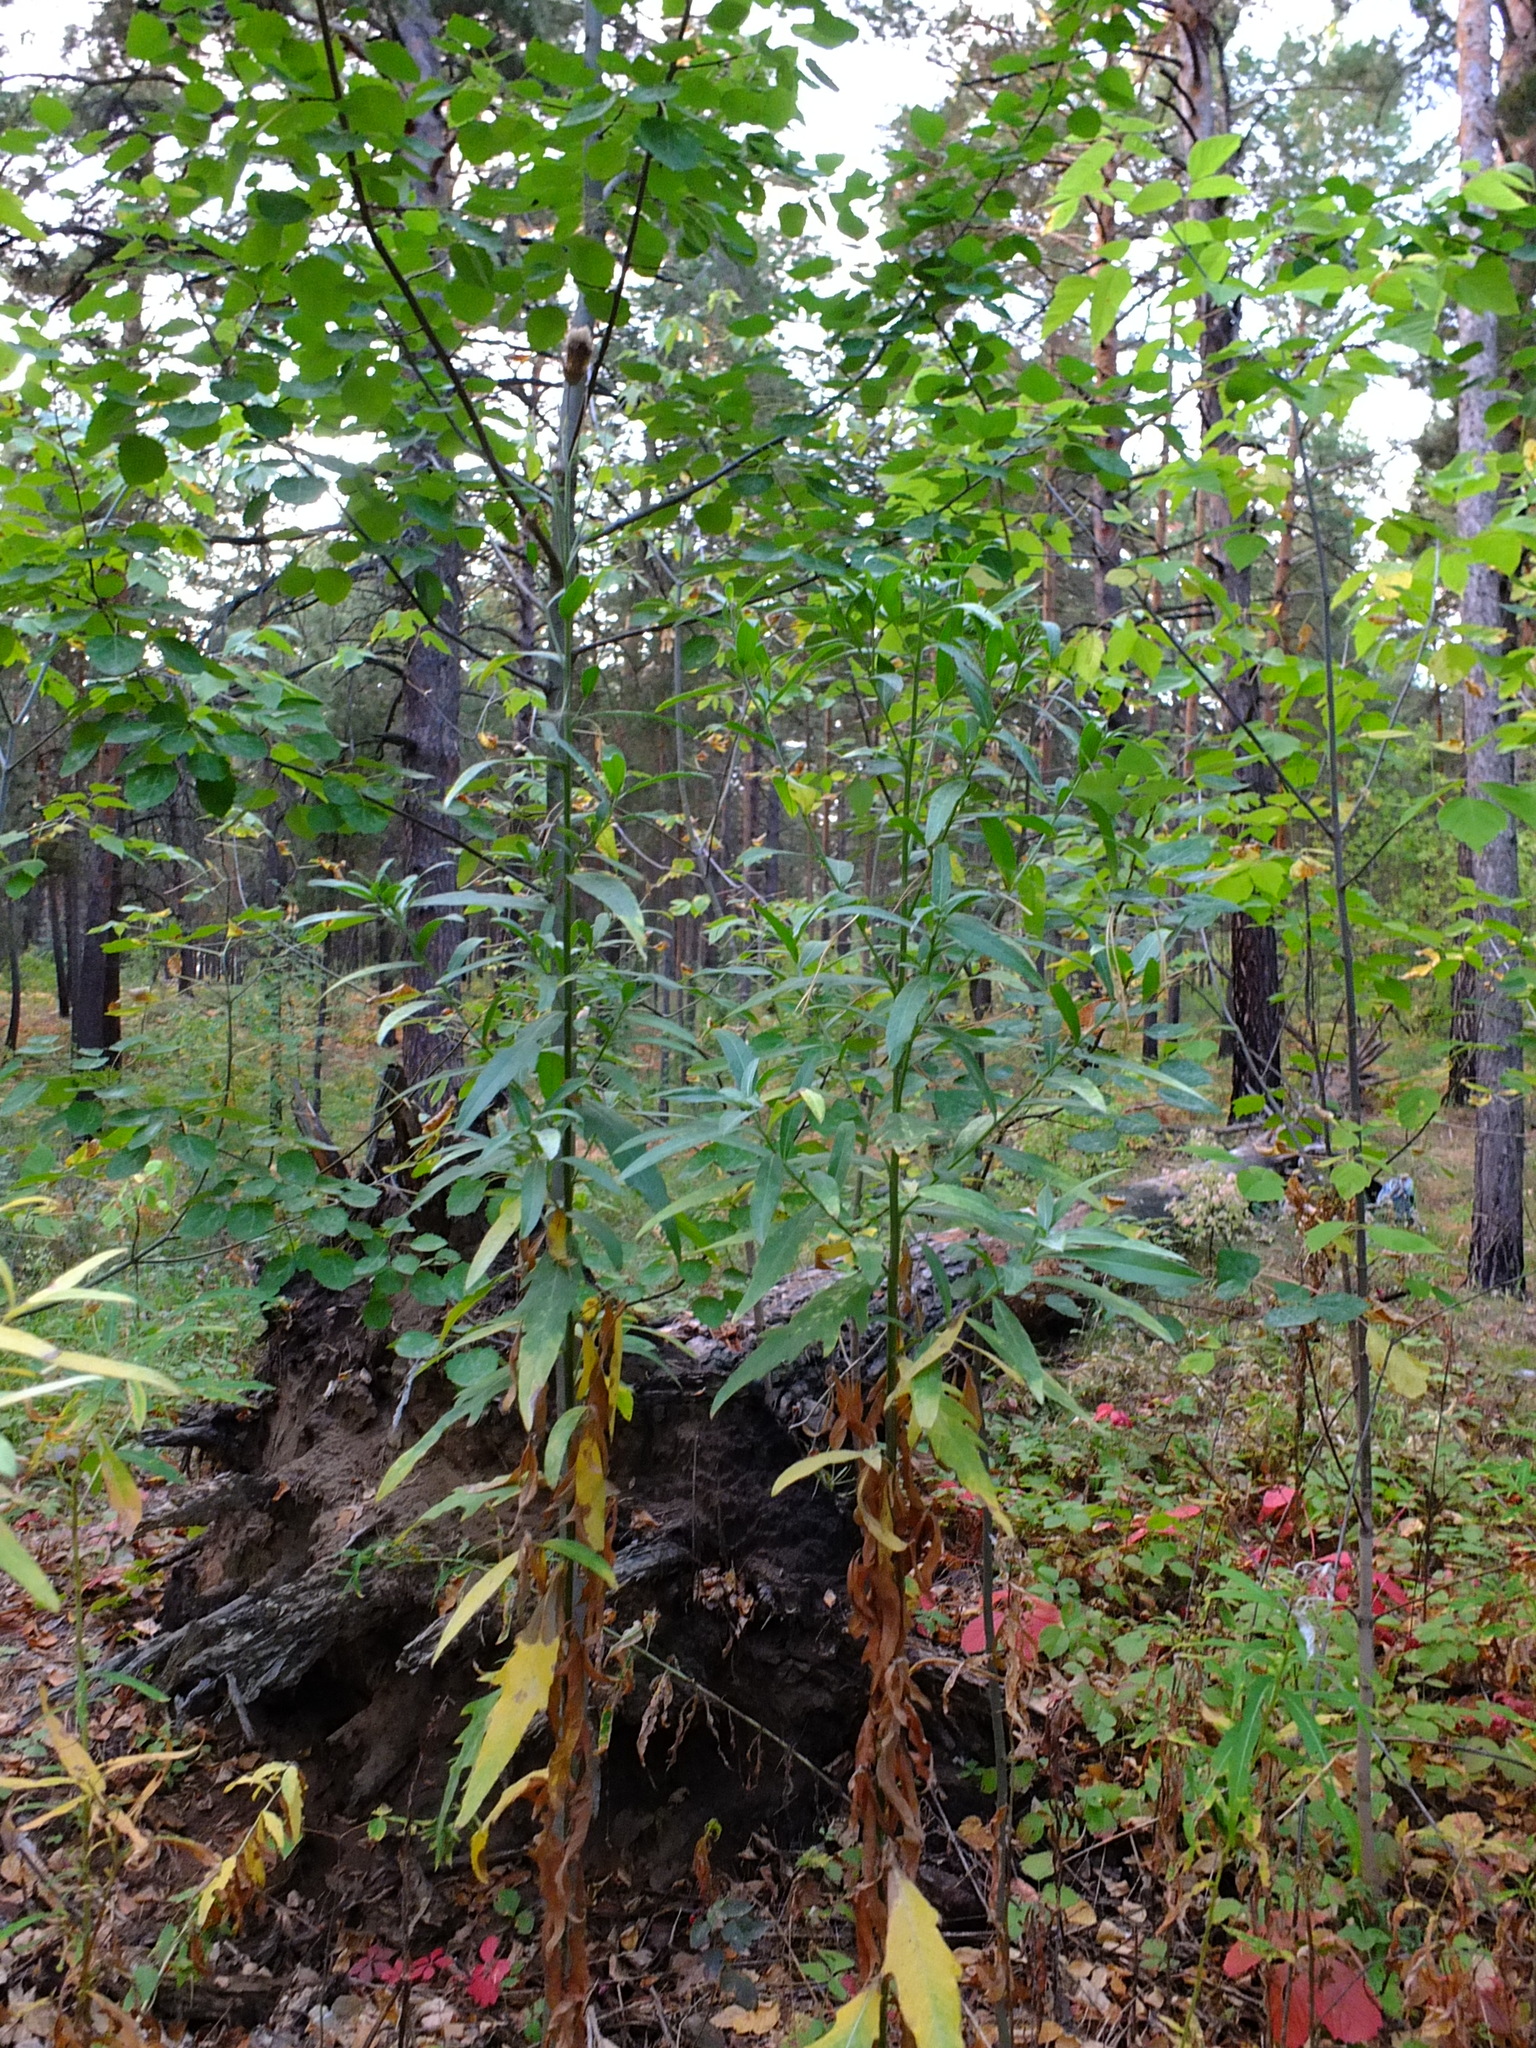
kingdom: Plantae
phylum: Tracheophyta
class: Magnoliopsida
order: Asterales
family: Asteraceae
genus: Cirsium
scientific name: Cirsium arvense
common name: Creeping thistle
